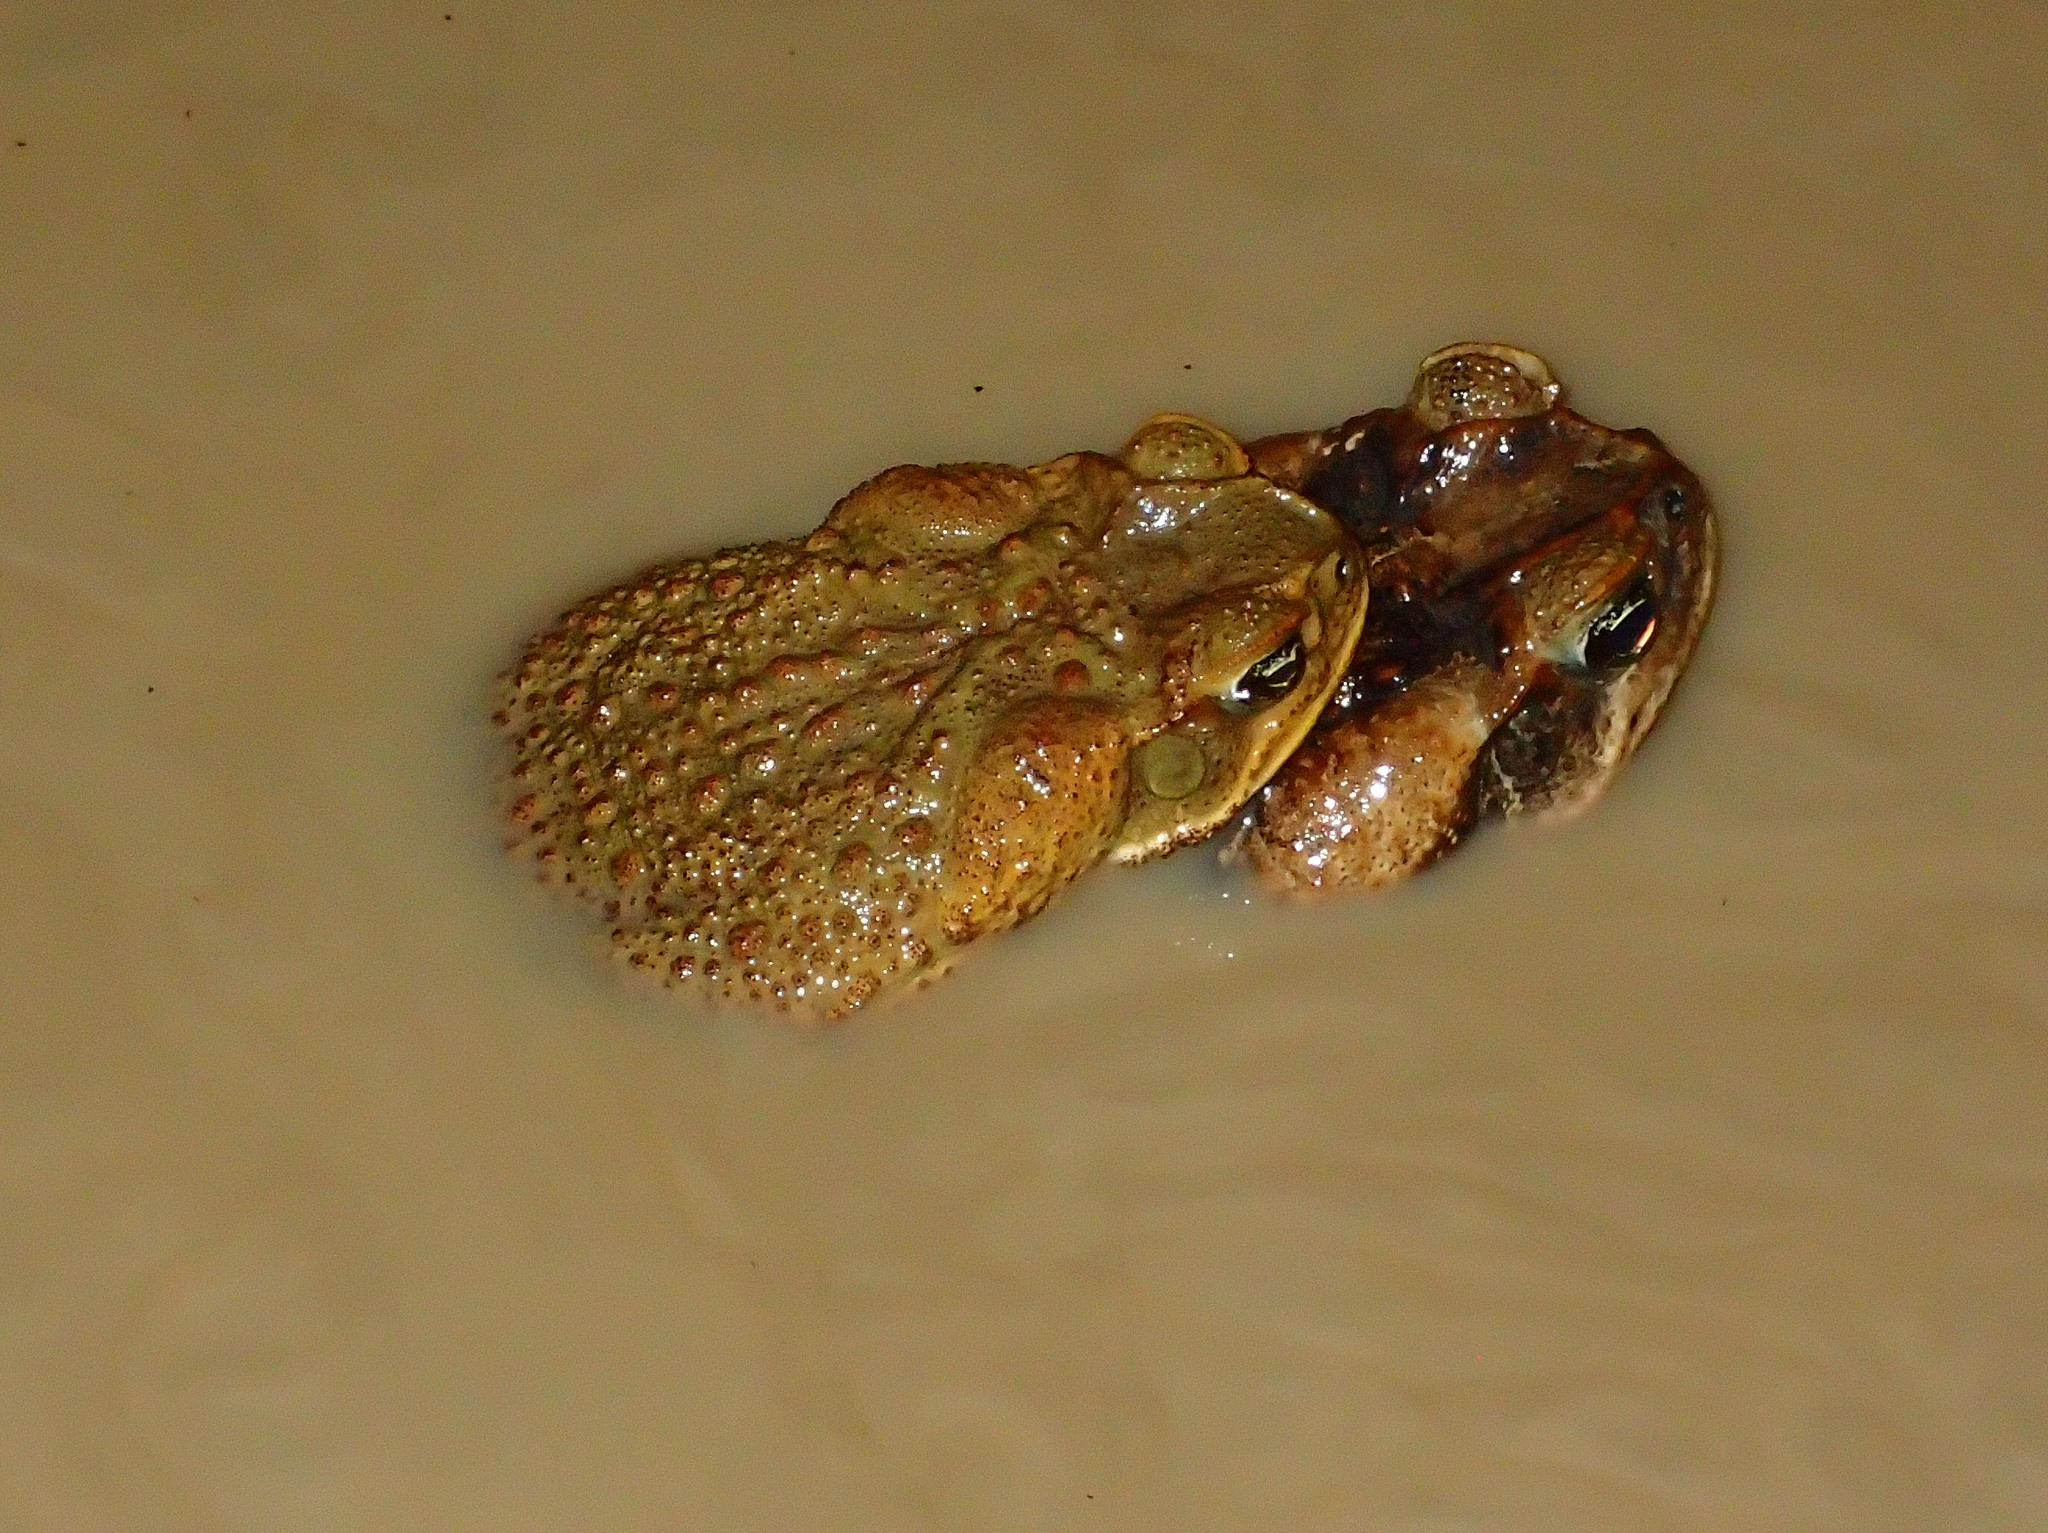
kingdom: Animalia
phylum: Chordata
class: Amphibia
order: Anura
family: Bufonidae
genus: Rhinella
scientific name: Rhinella marina
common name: Cane toad
